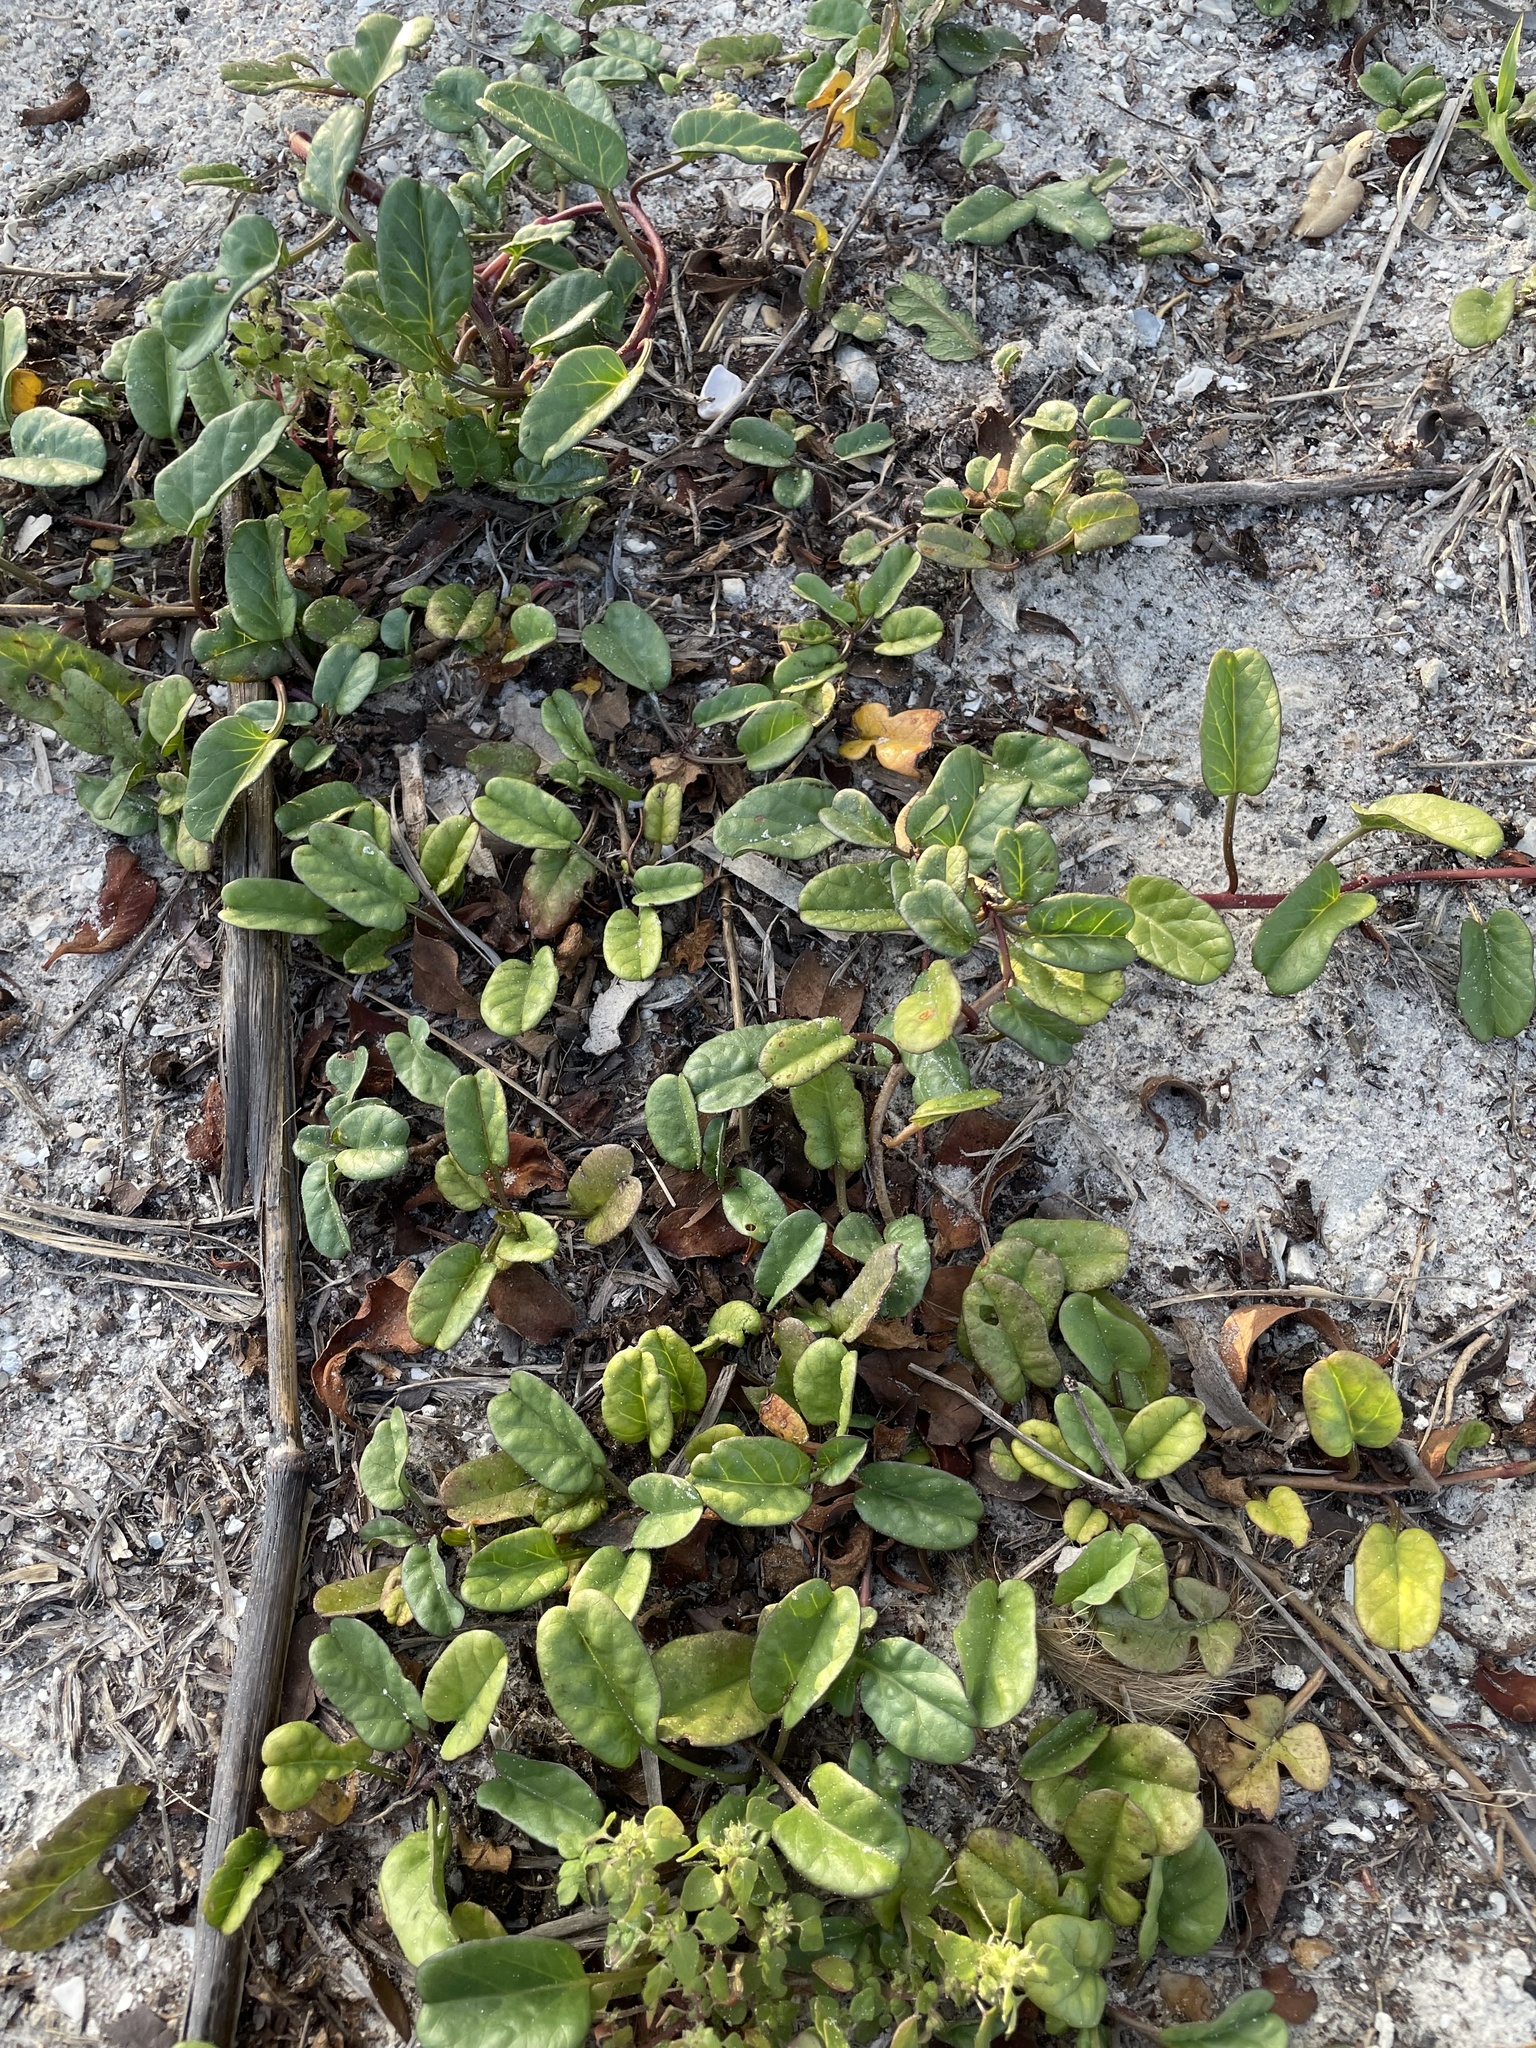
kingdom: Plantae
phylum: Tracheophyta
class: Magnoliopsida
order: Solanales
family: Convolvulaceae
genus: Ipomoea
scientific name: Ipomoea imperati
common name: Fiddle-leaf morning-glory
